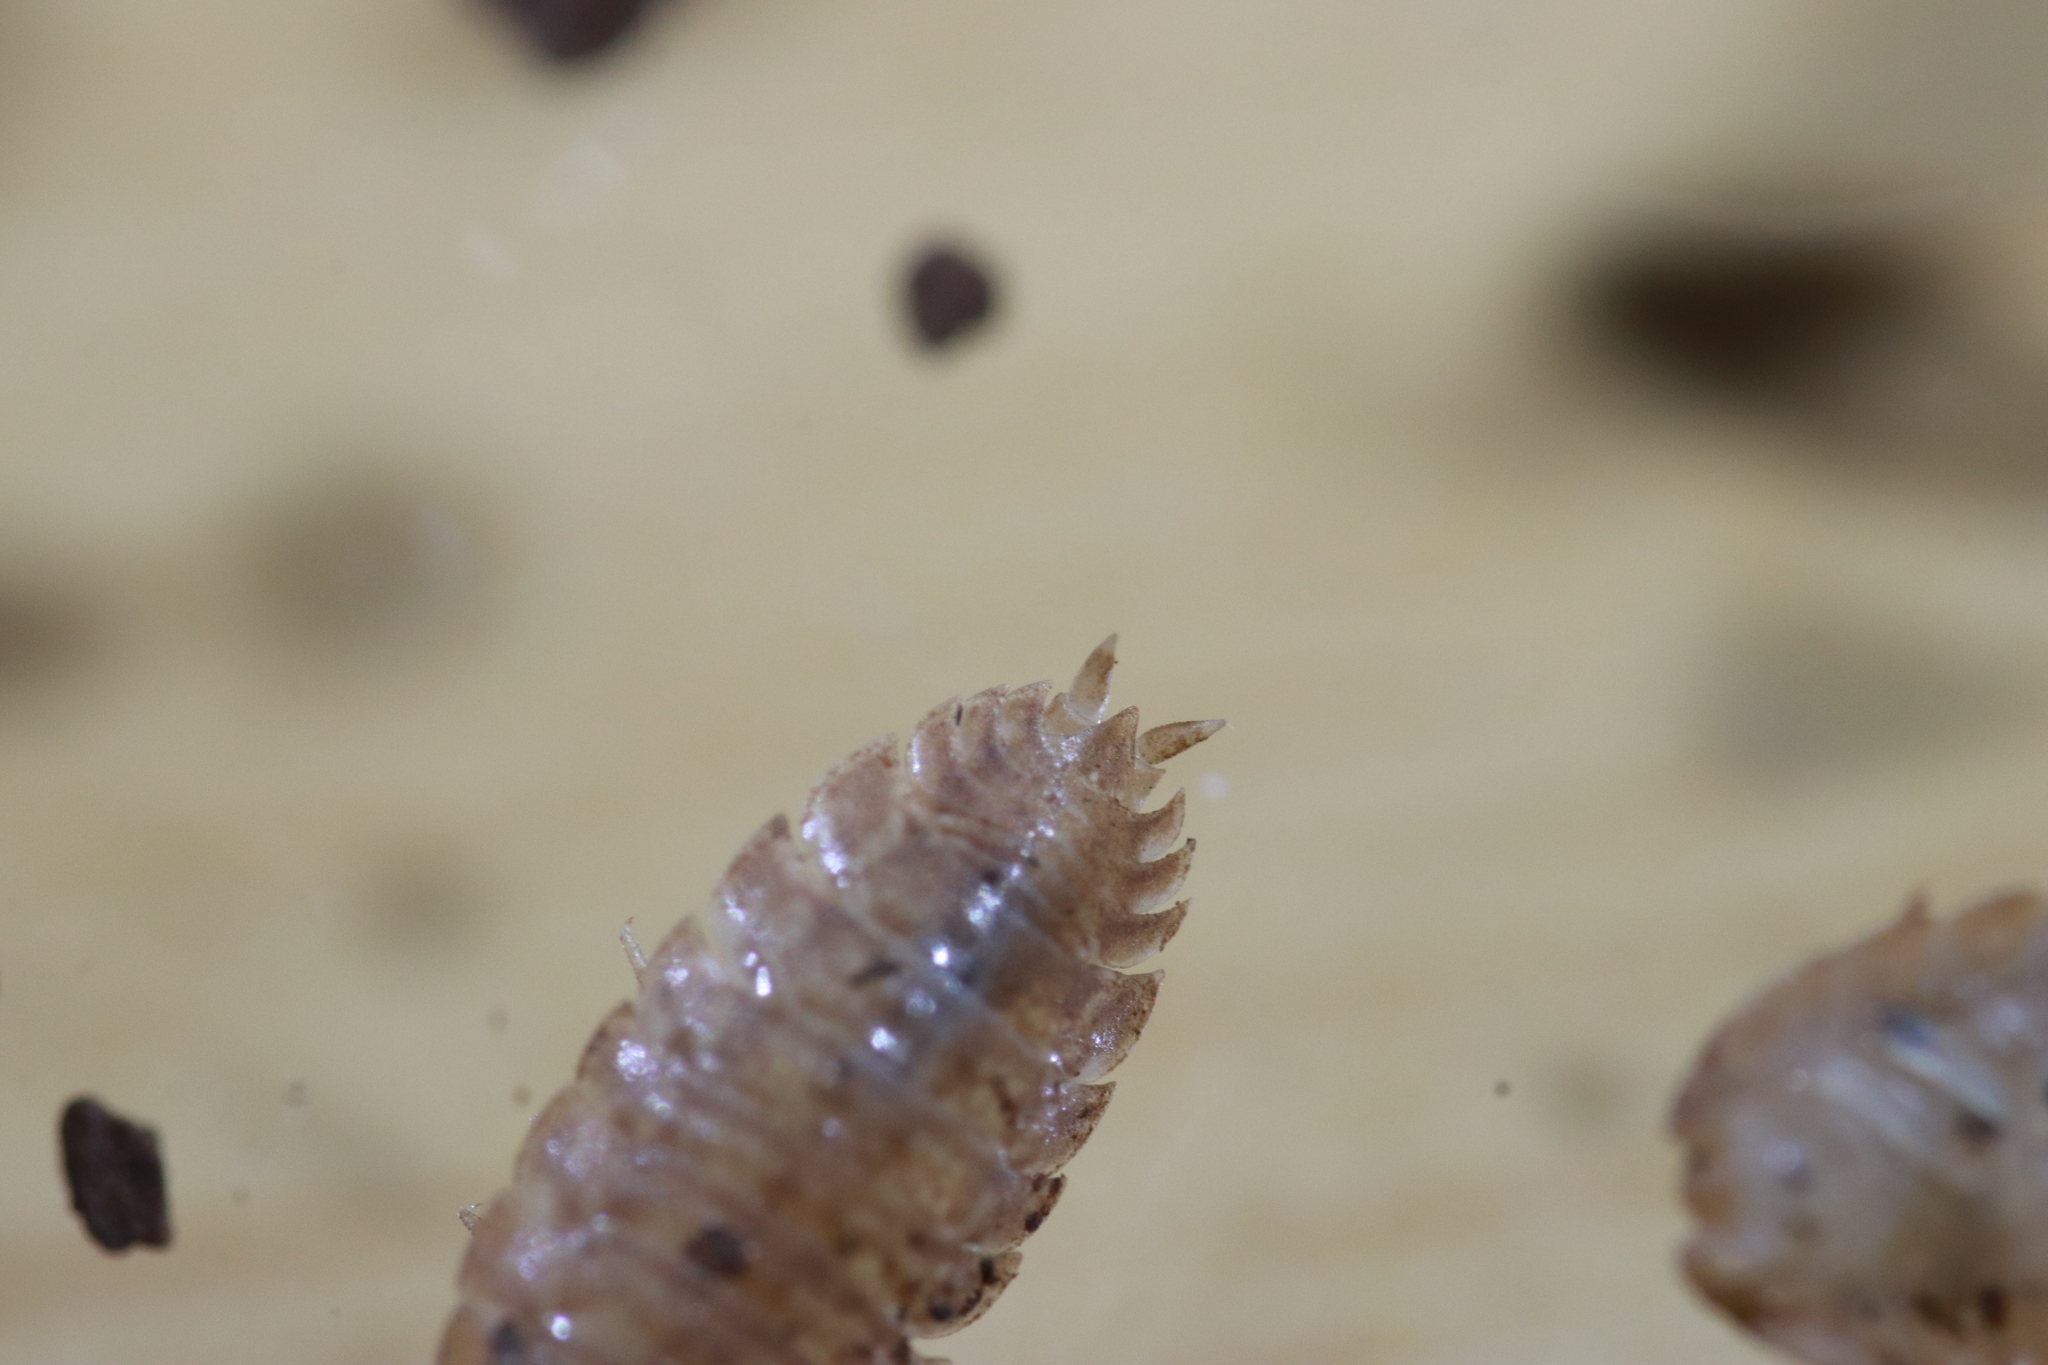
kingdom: Animalia
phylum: Arthropoda
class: Malacostraca
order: Isopoda
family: Porcellionidae
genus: Lucasius
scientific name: Lucasius pallidus
